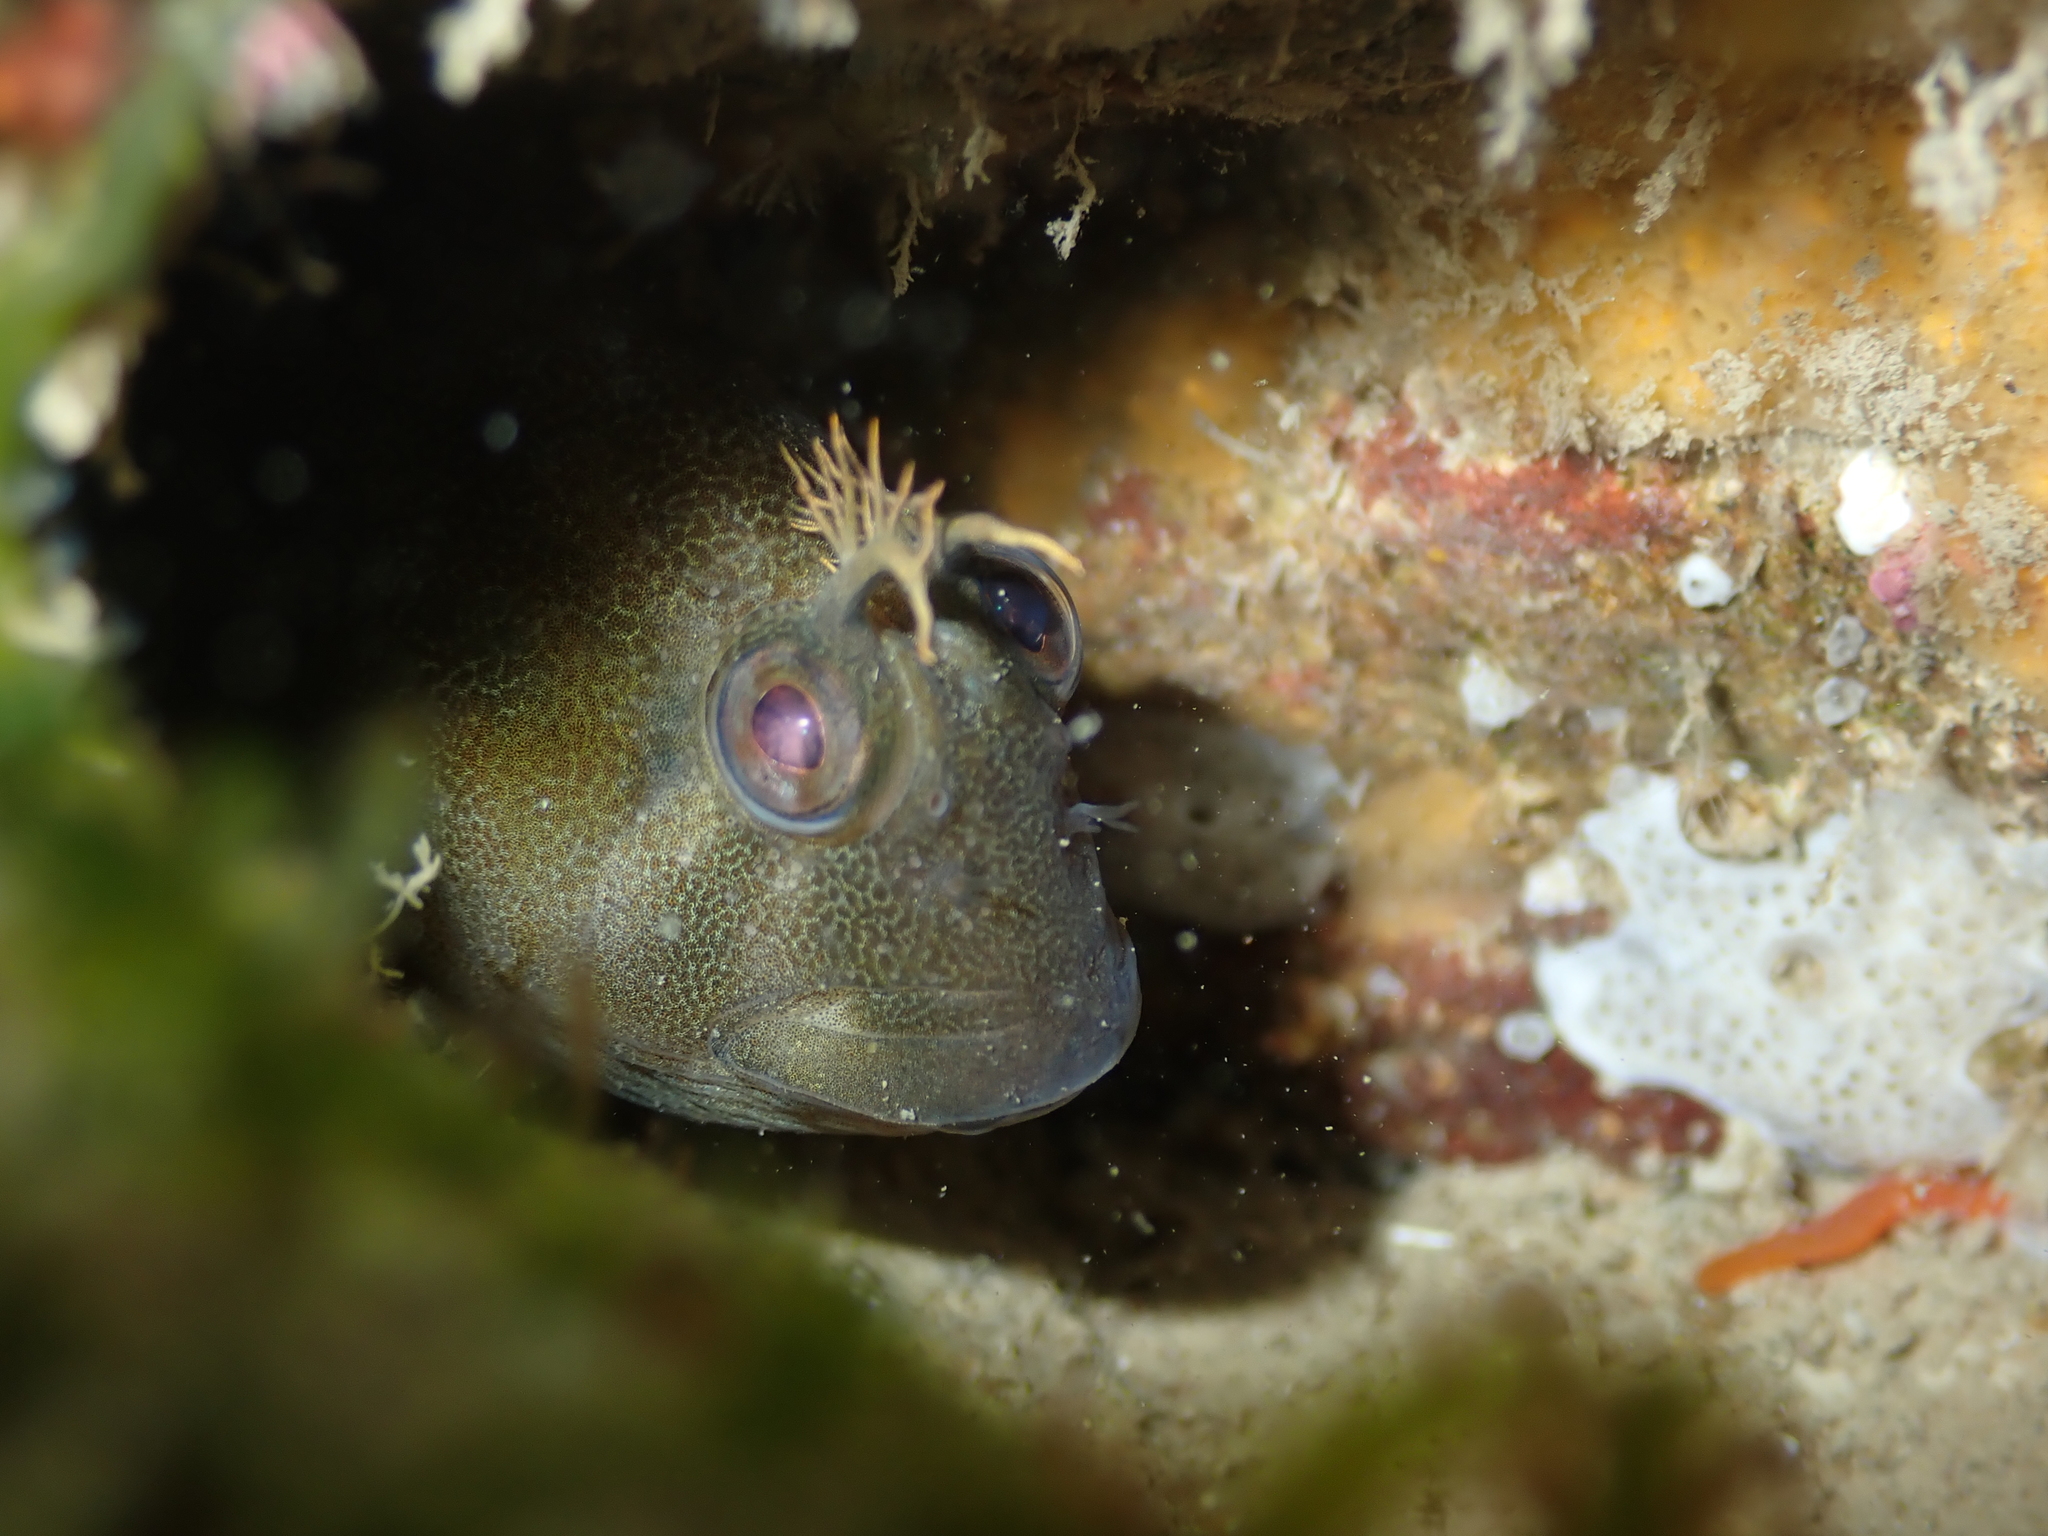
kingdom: Animalia
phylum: Chordata
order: Perciformes
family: Blenniidae
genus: Parablennius
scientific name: Parablennius tasmanianus
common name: Tasmanian blenny
